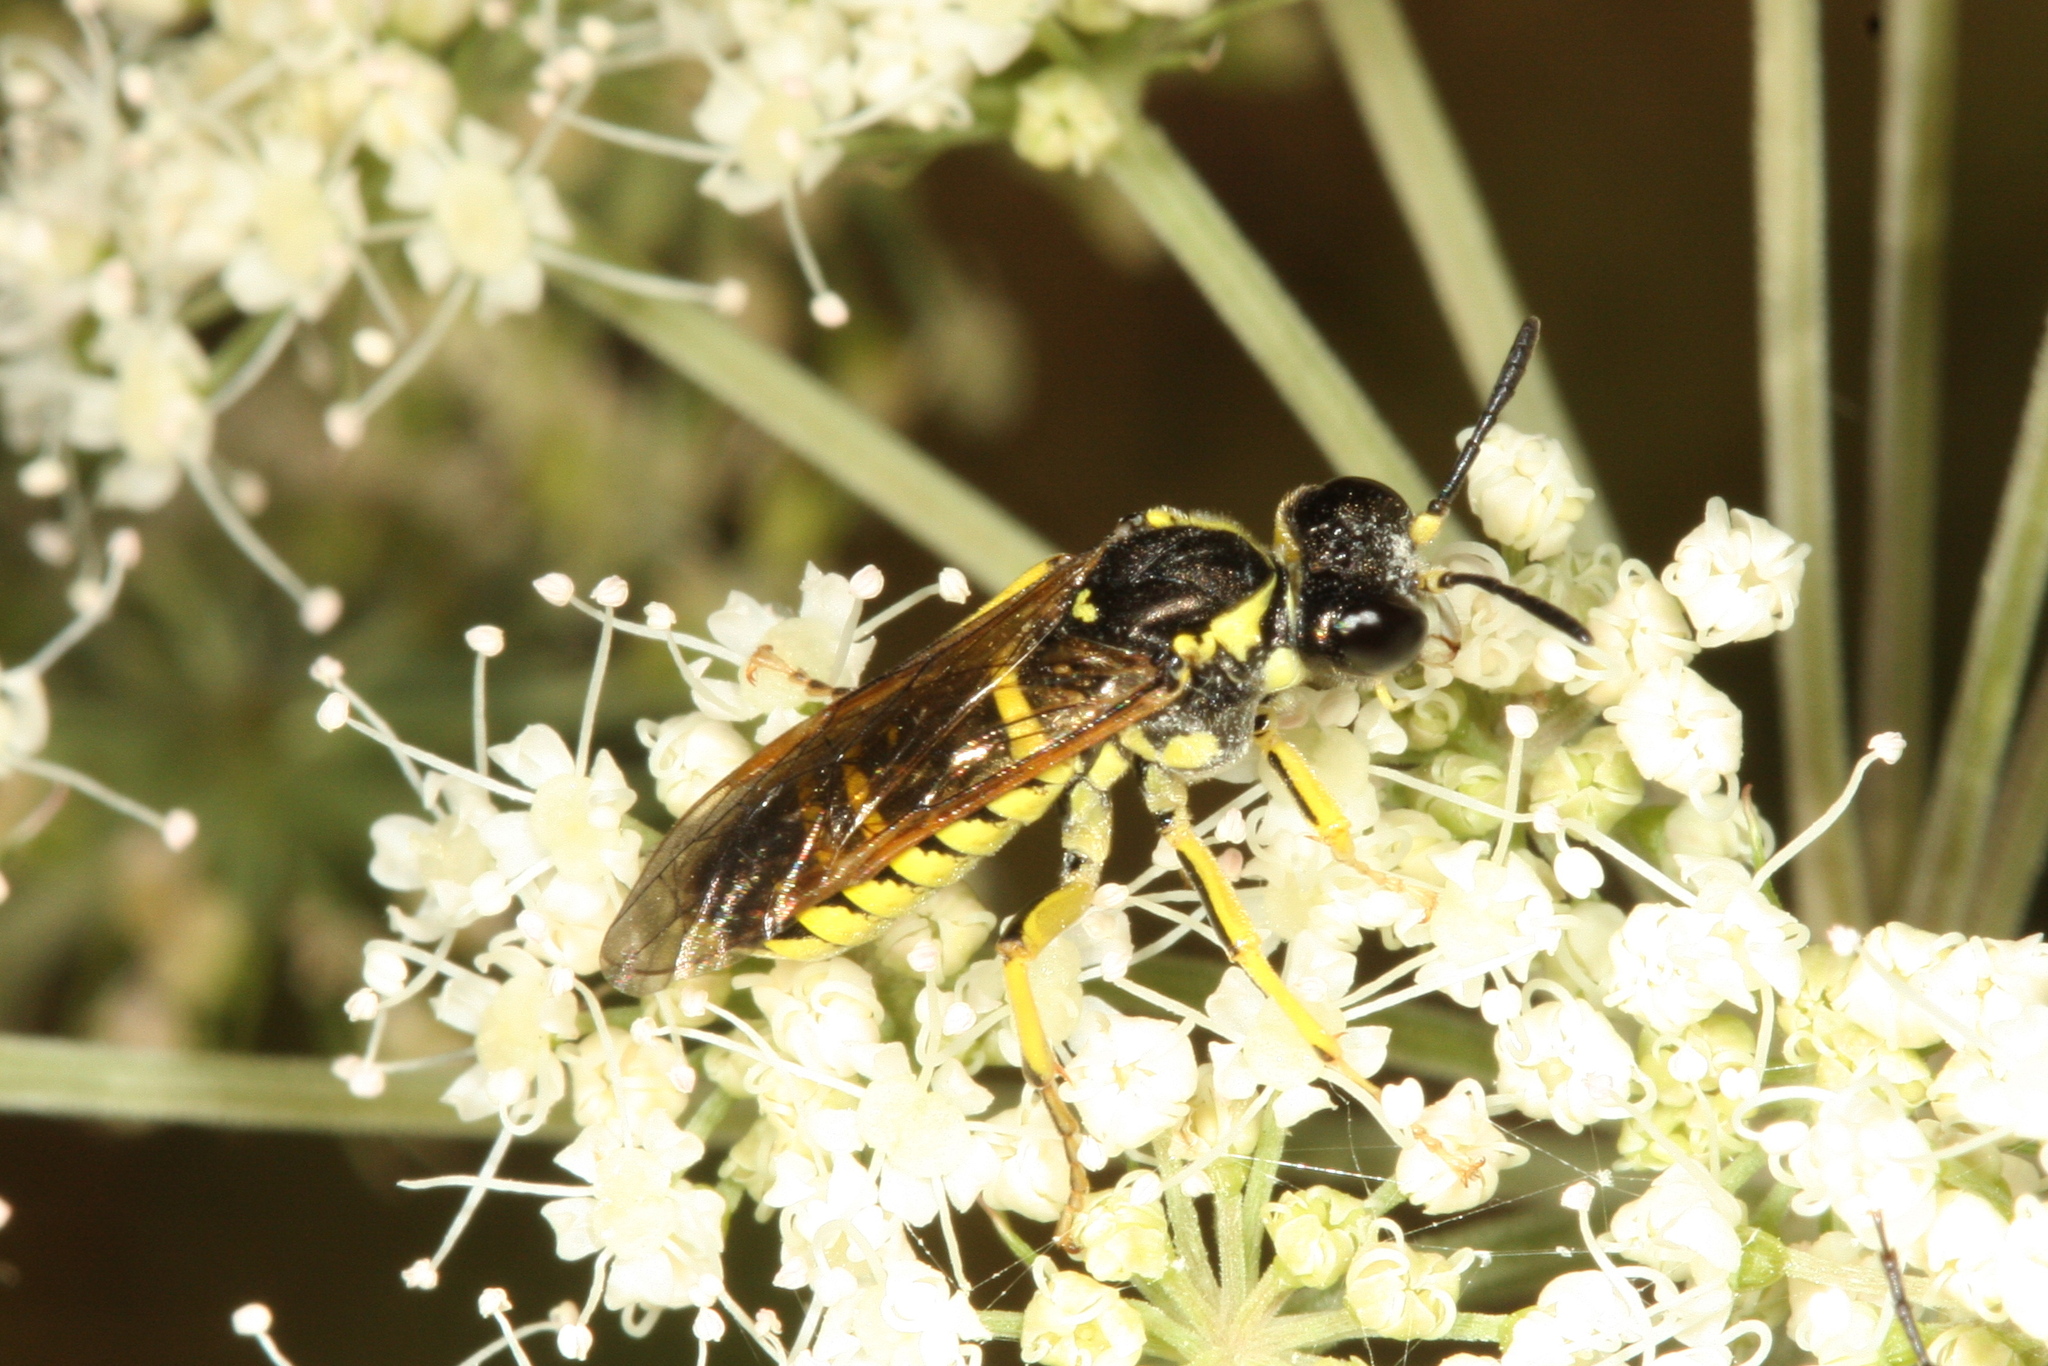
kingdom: Animalia
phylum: Arthropoda
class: Insecta
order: Hymenoptera
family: Tenthredinidae
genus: Tenthredo
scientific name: Tenthredo notha
